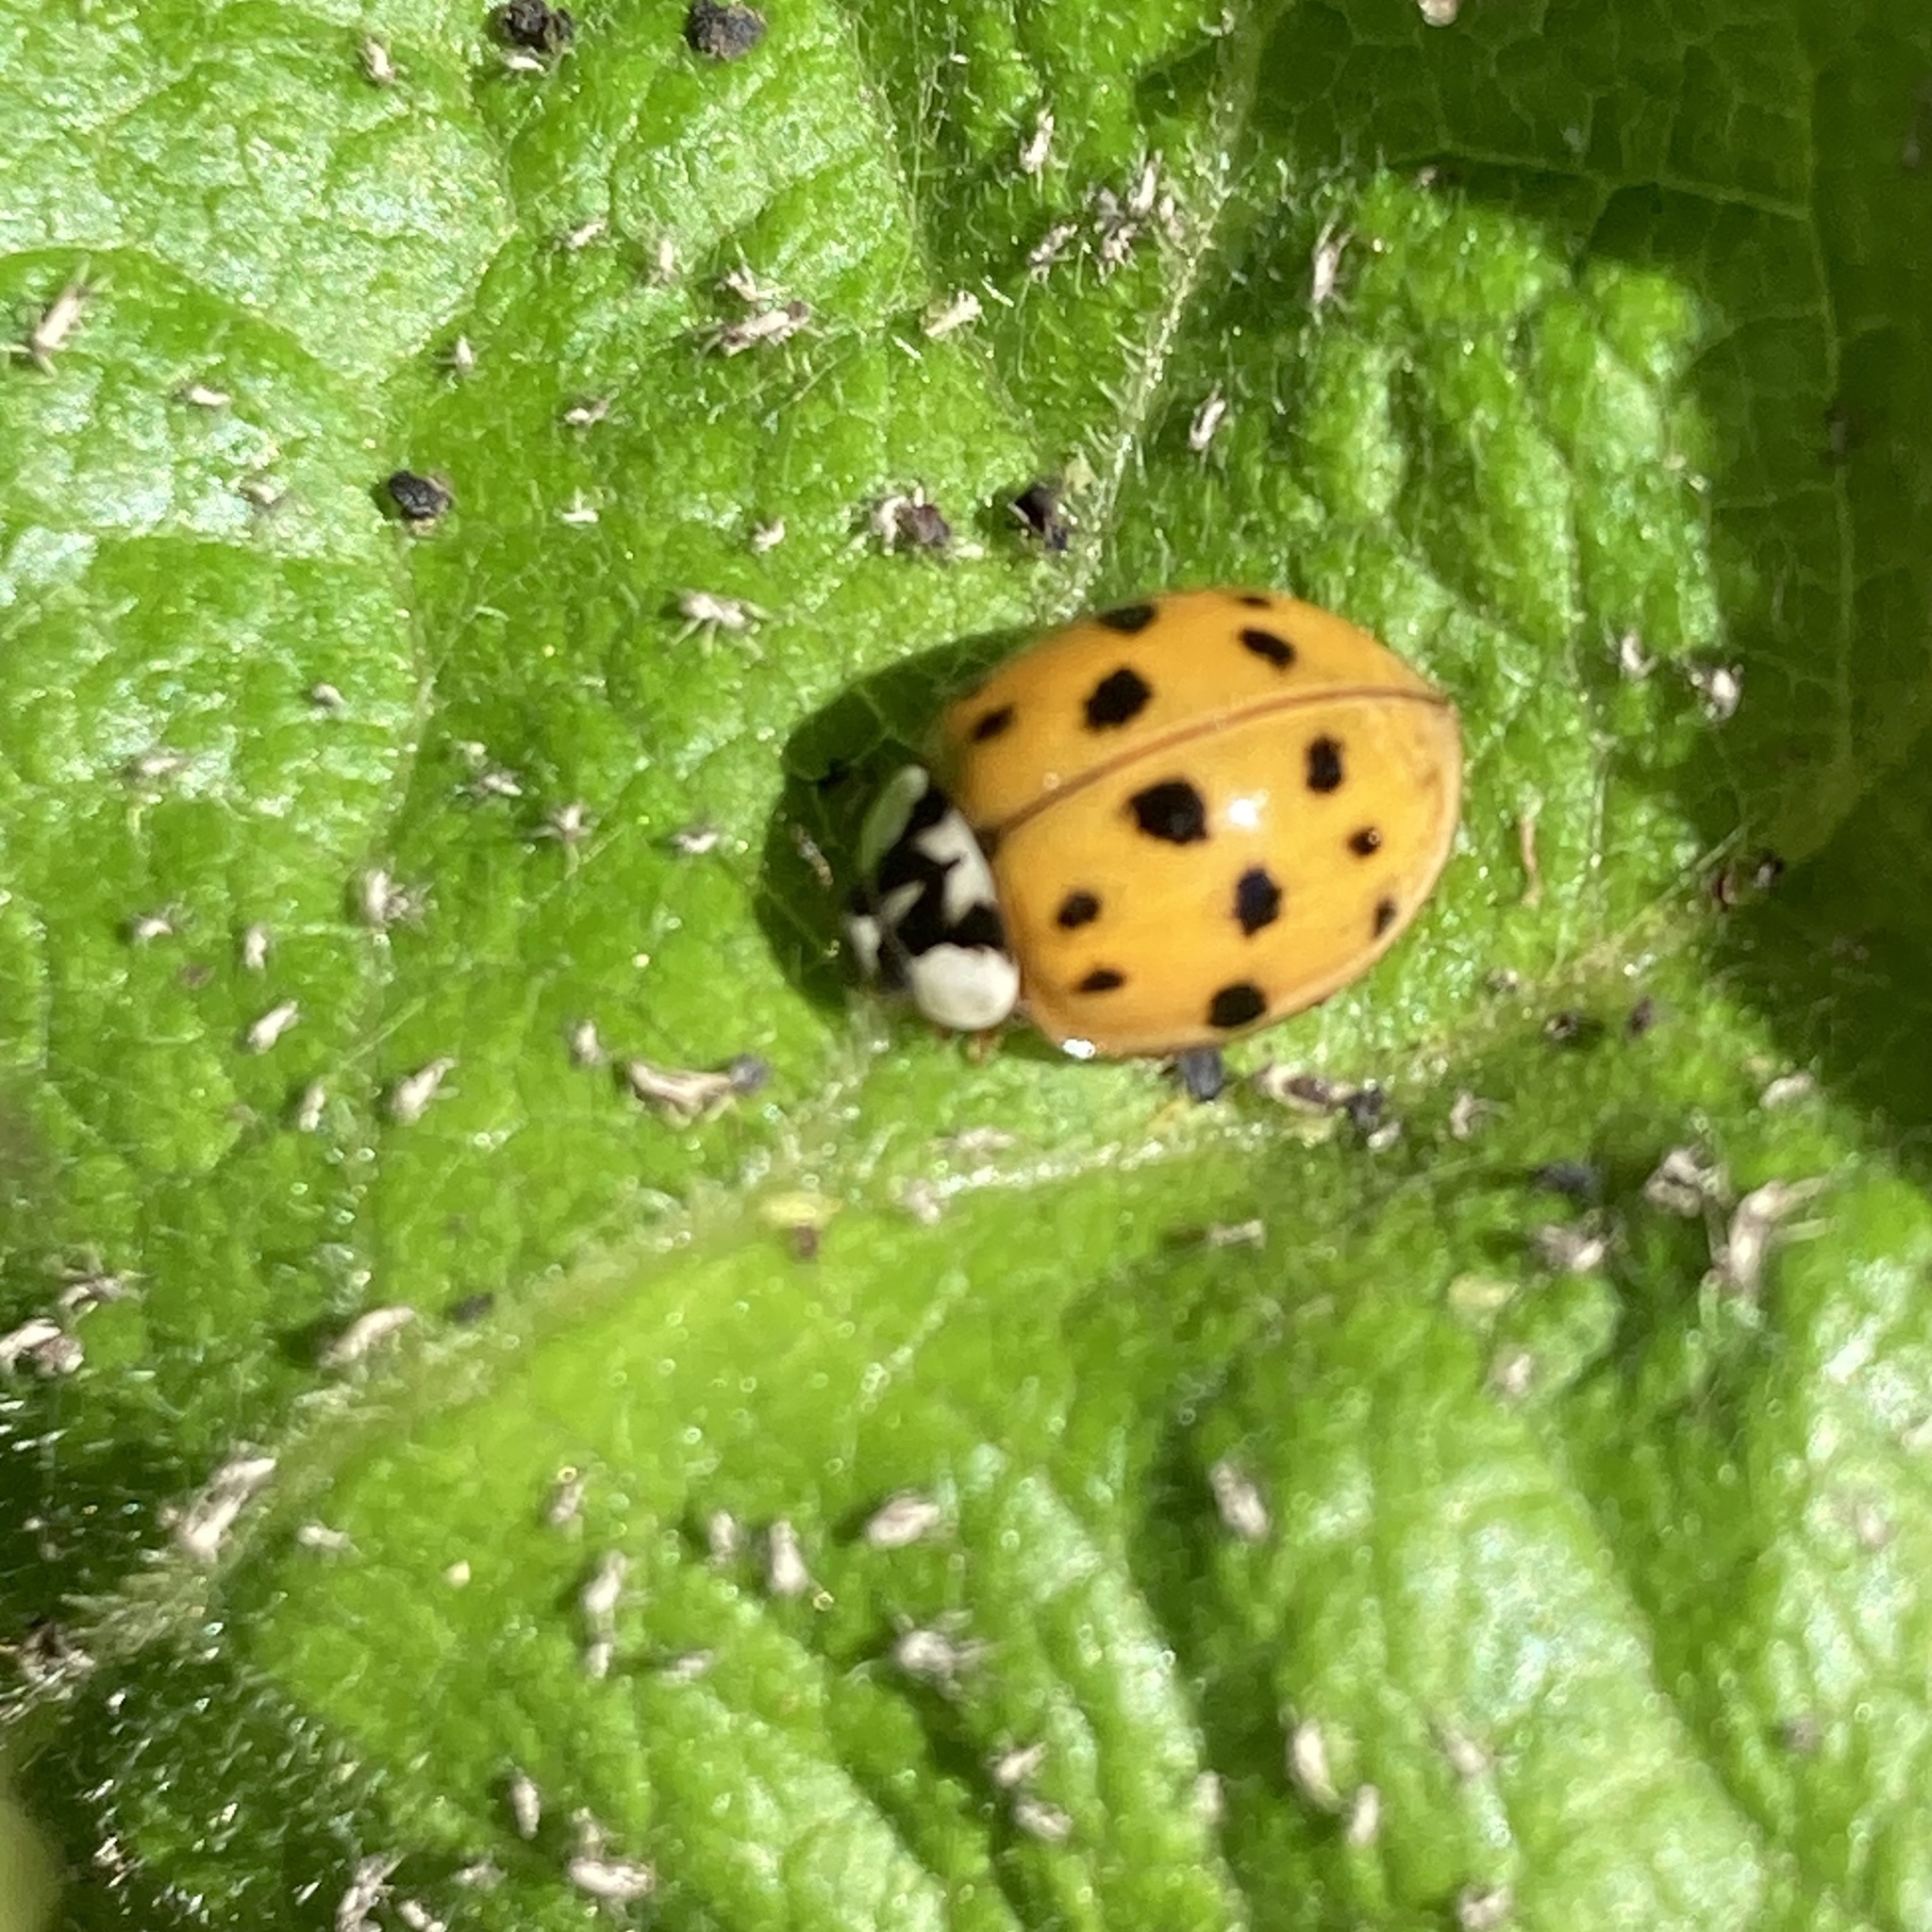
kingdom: Animalia
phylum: Arthropoda
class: Insecta
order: Coleoptera
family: Coccinellidae
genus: Harmonia
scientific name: Harmonia axyridis
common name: Harlequin ladybird
